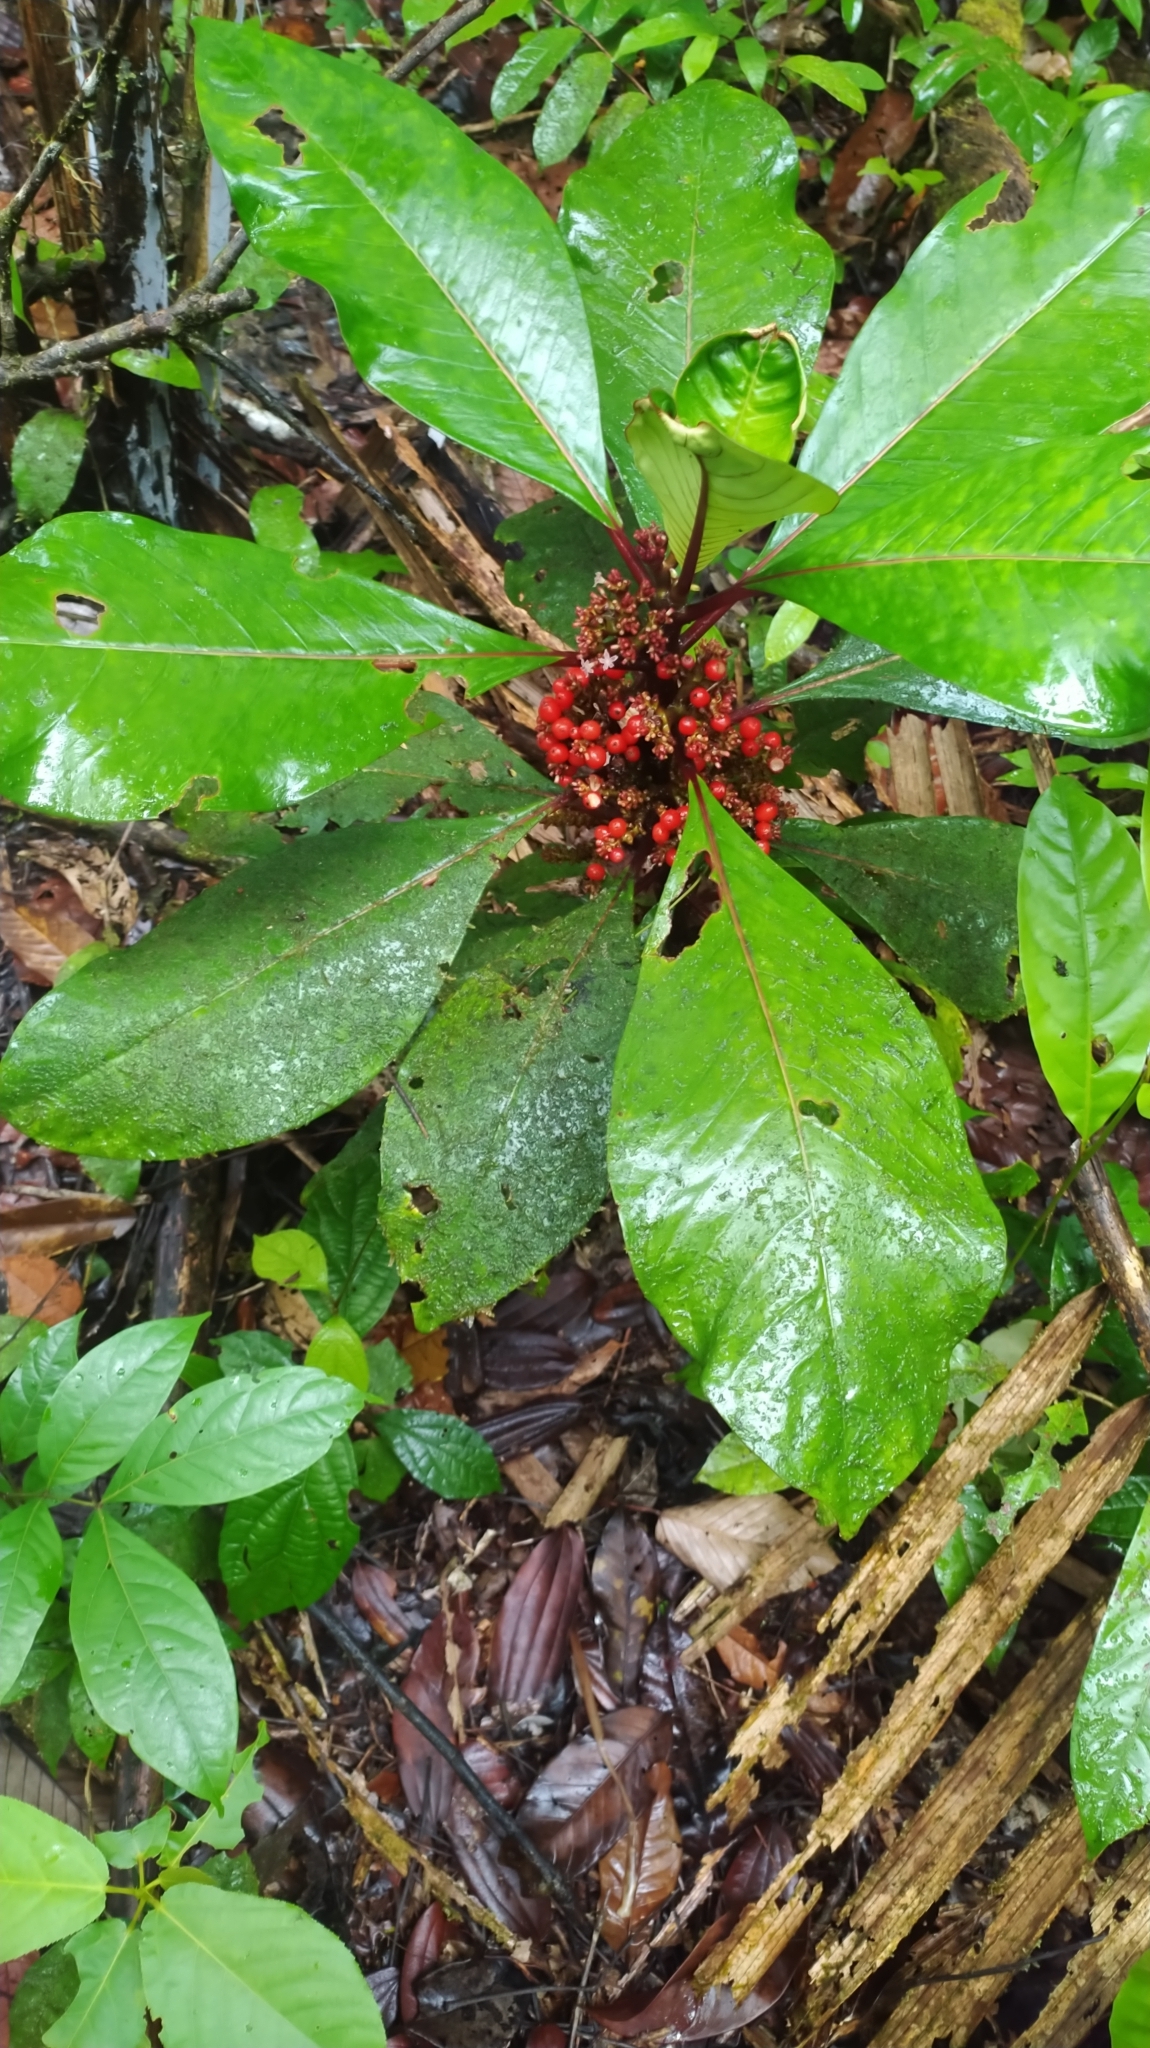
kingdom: Plantae
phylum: Tracheophyta
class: Magnoliopsida
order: Gentianales
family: Rubiaceae
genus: Notopleura
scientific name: Notopleura uliginosa
